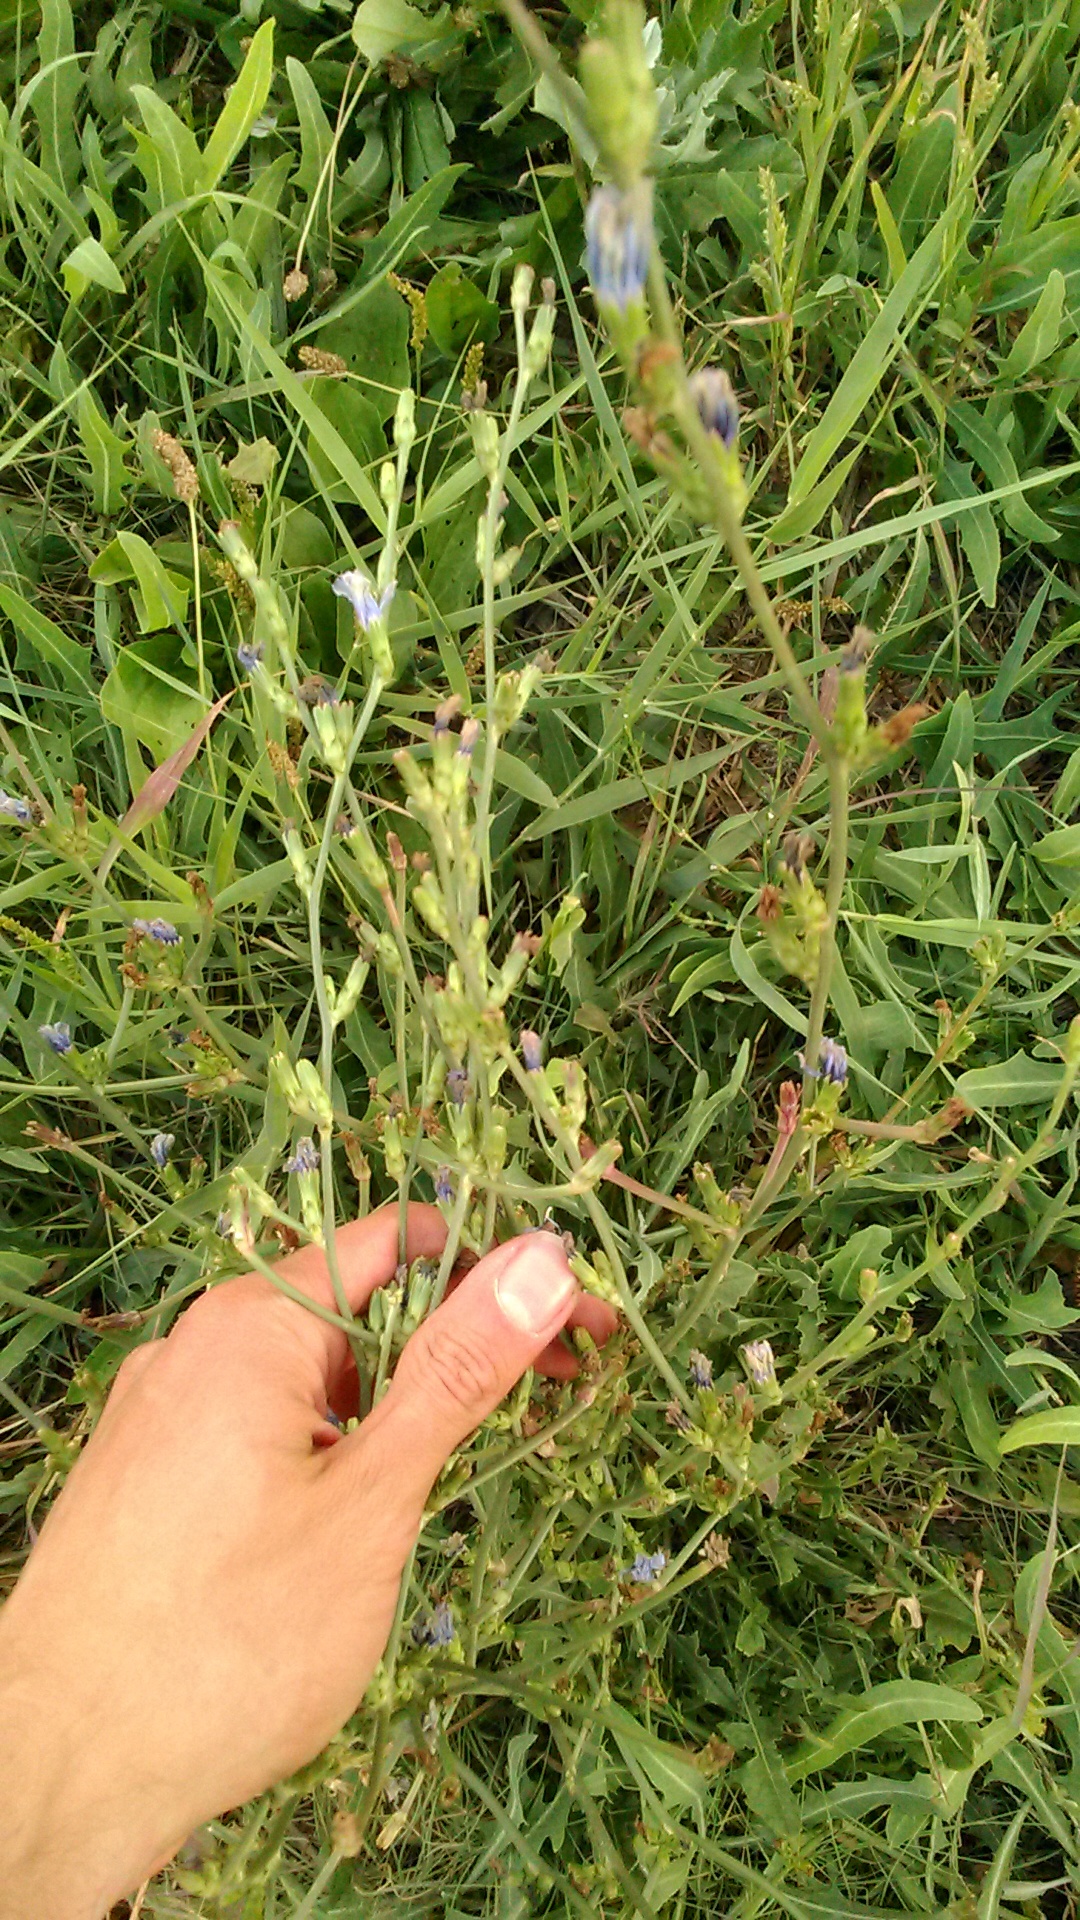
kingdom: Plantae
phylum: Tracheophyta
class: Magnoliopsida
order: Asterales
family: Asteraceae
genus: Cichorium
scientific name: Cichorium intybus
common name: Chicory
